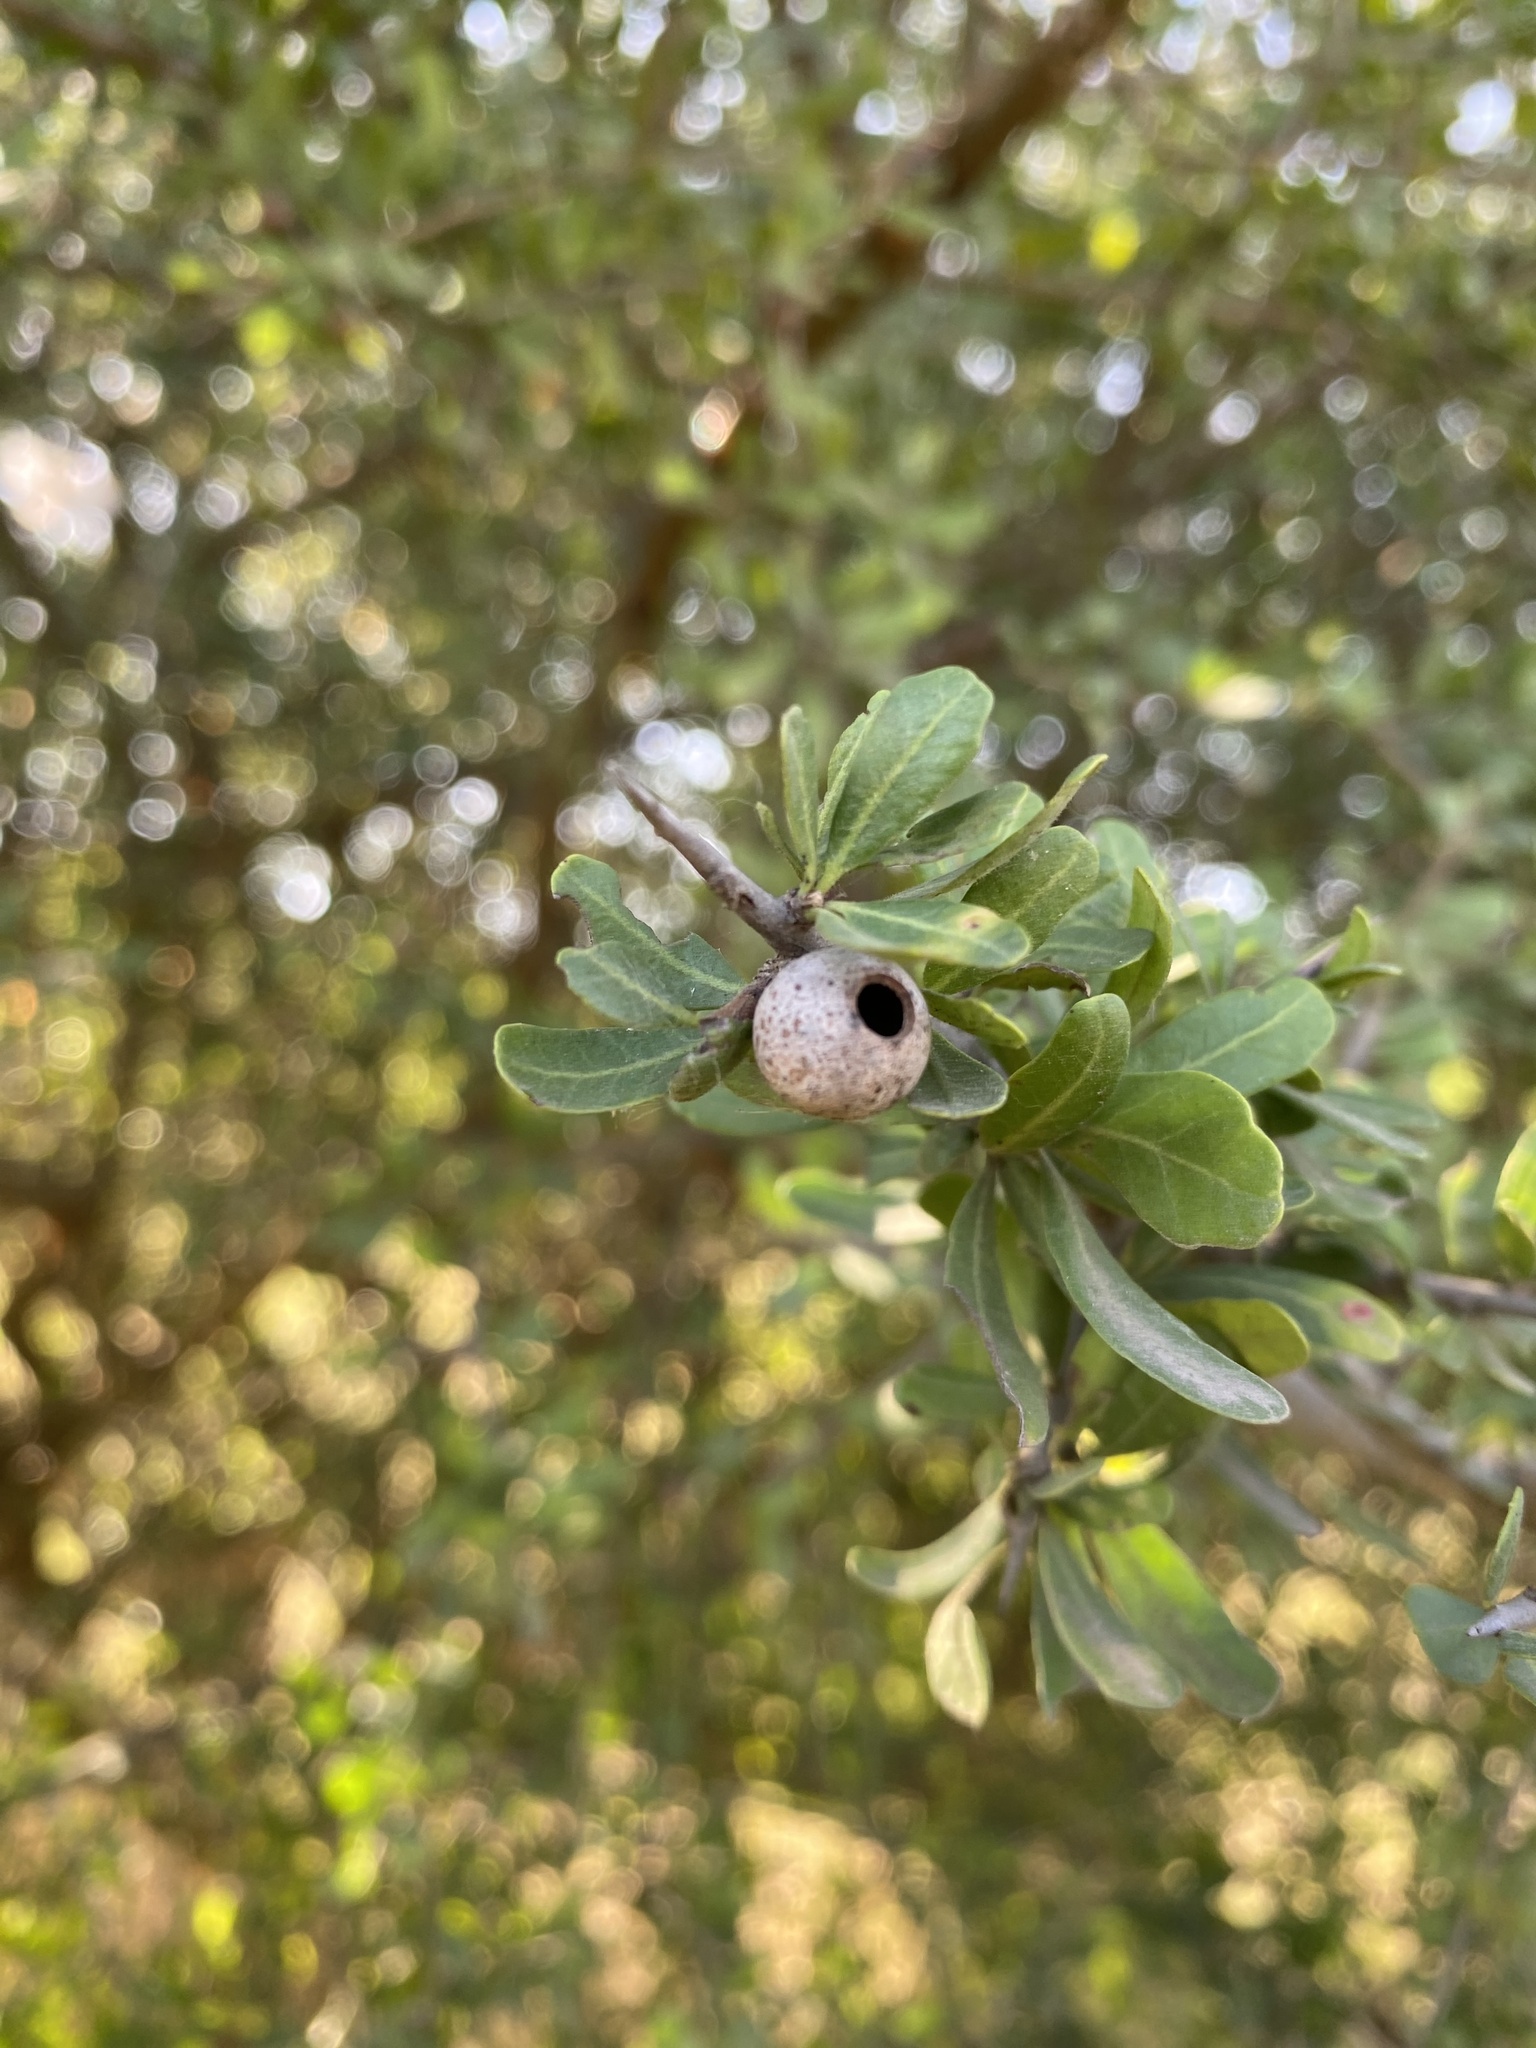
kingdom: Plantae
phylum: Tracheophyta
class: Magnoliopsida
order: Sapindales
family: Anacardiaceae
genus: Schinus
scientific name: Schinus fasciculata
